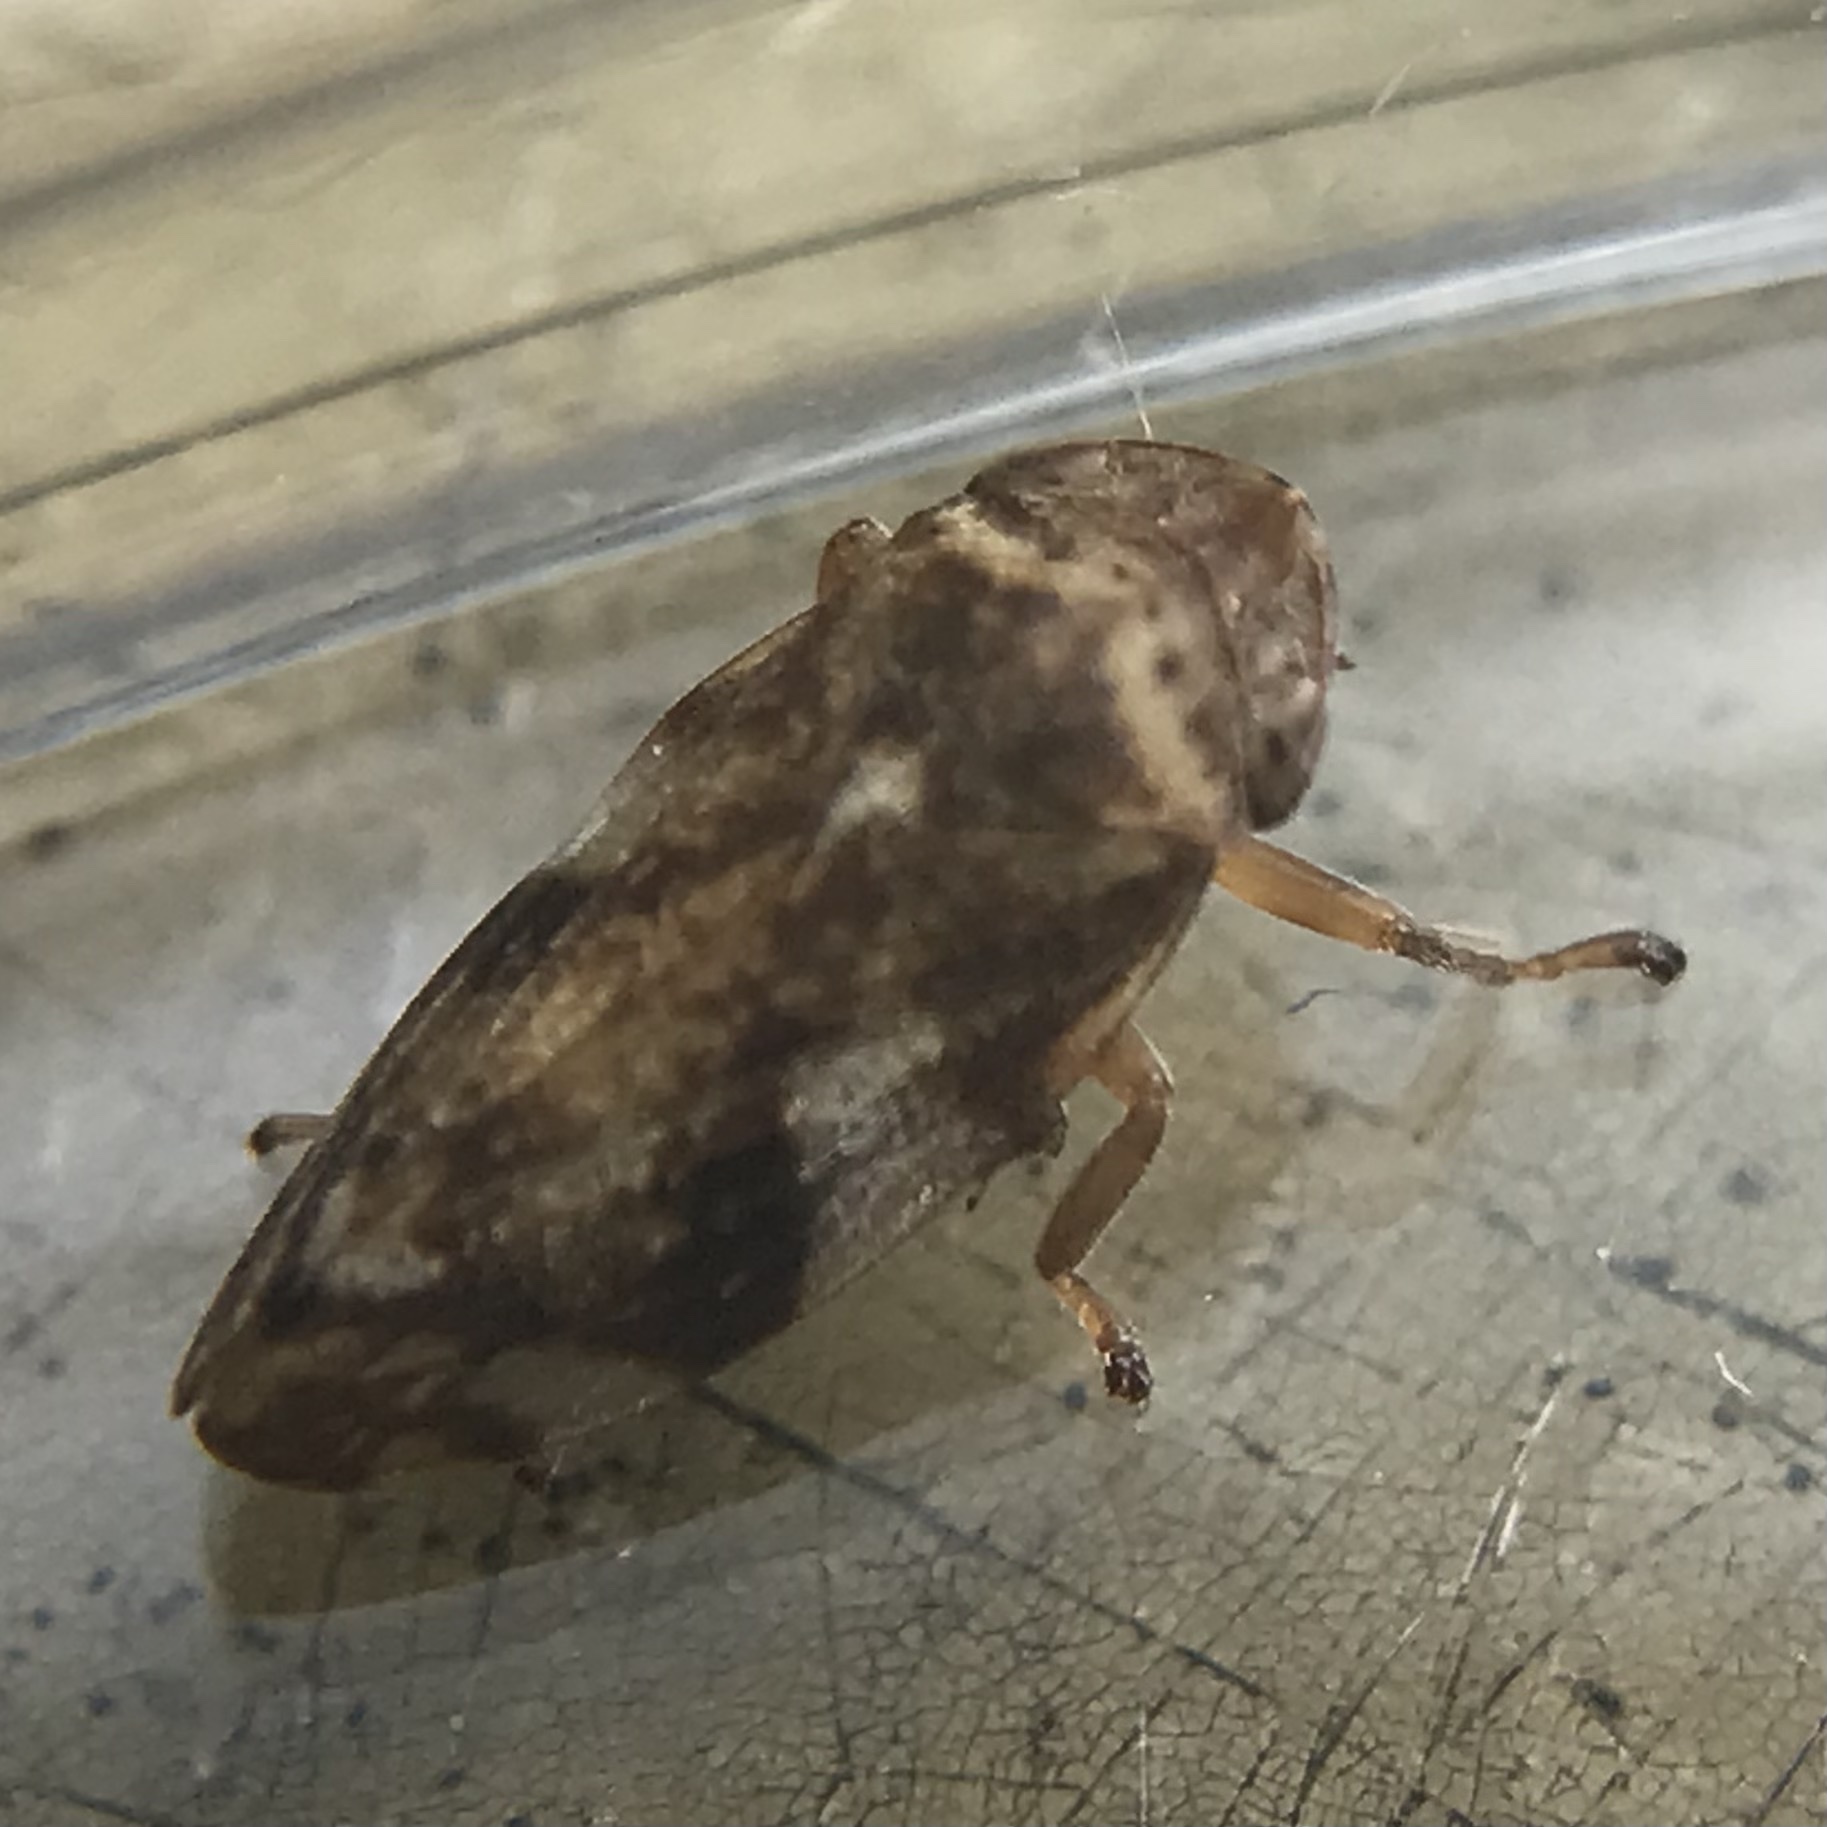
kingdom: Animalia
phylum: Arthropoda
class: Insecta
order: Hemiptera
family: Aphrophoridae
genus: Philaenus
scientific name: Philaenus spumarius
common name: Meadow spittlebug
